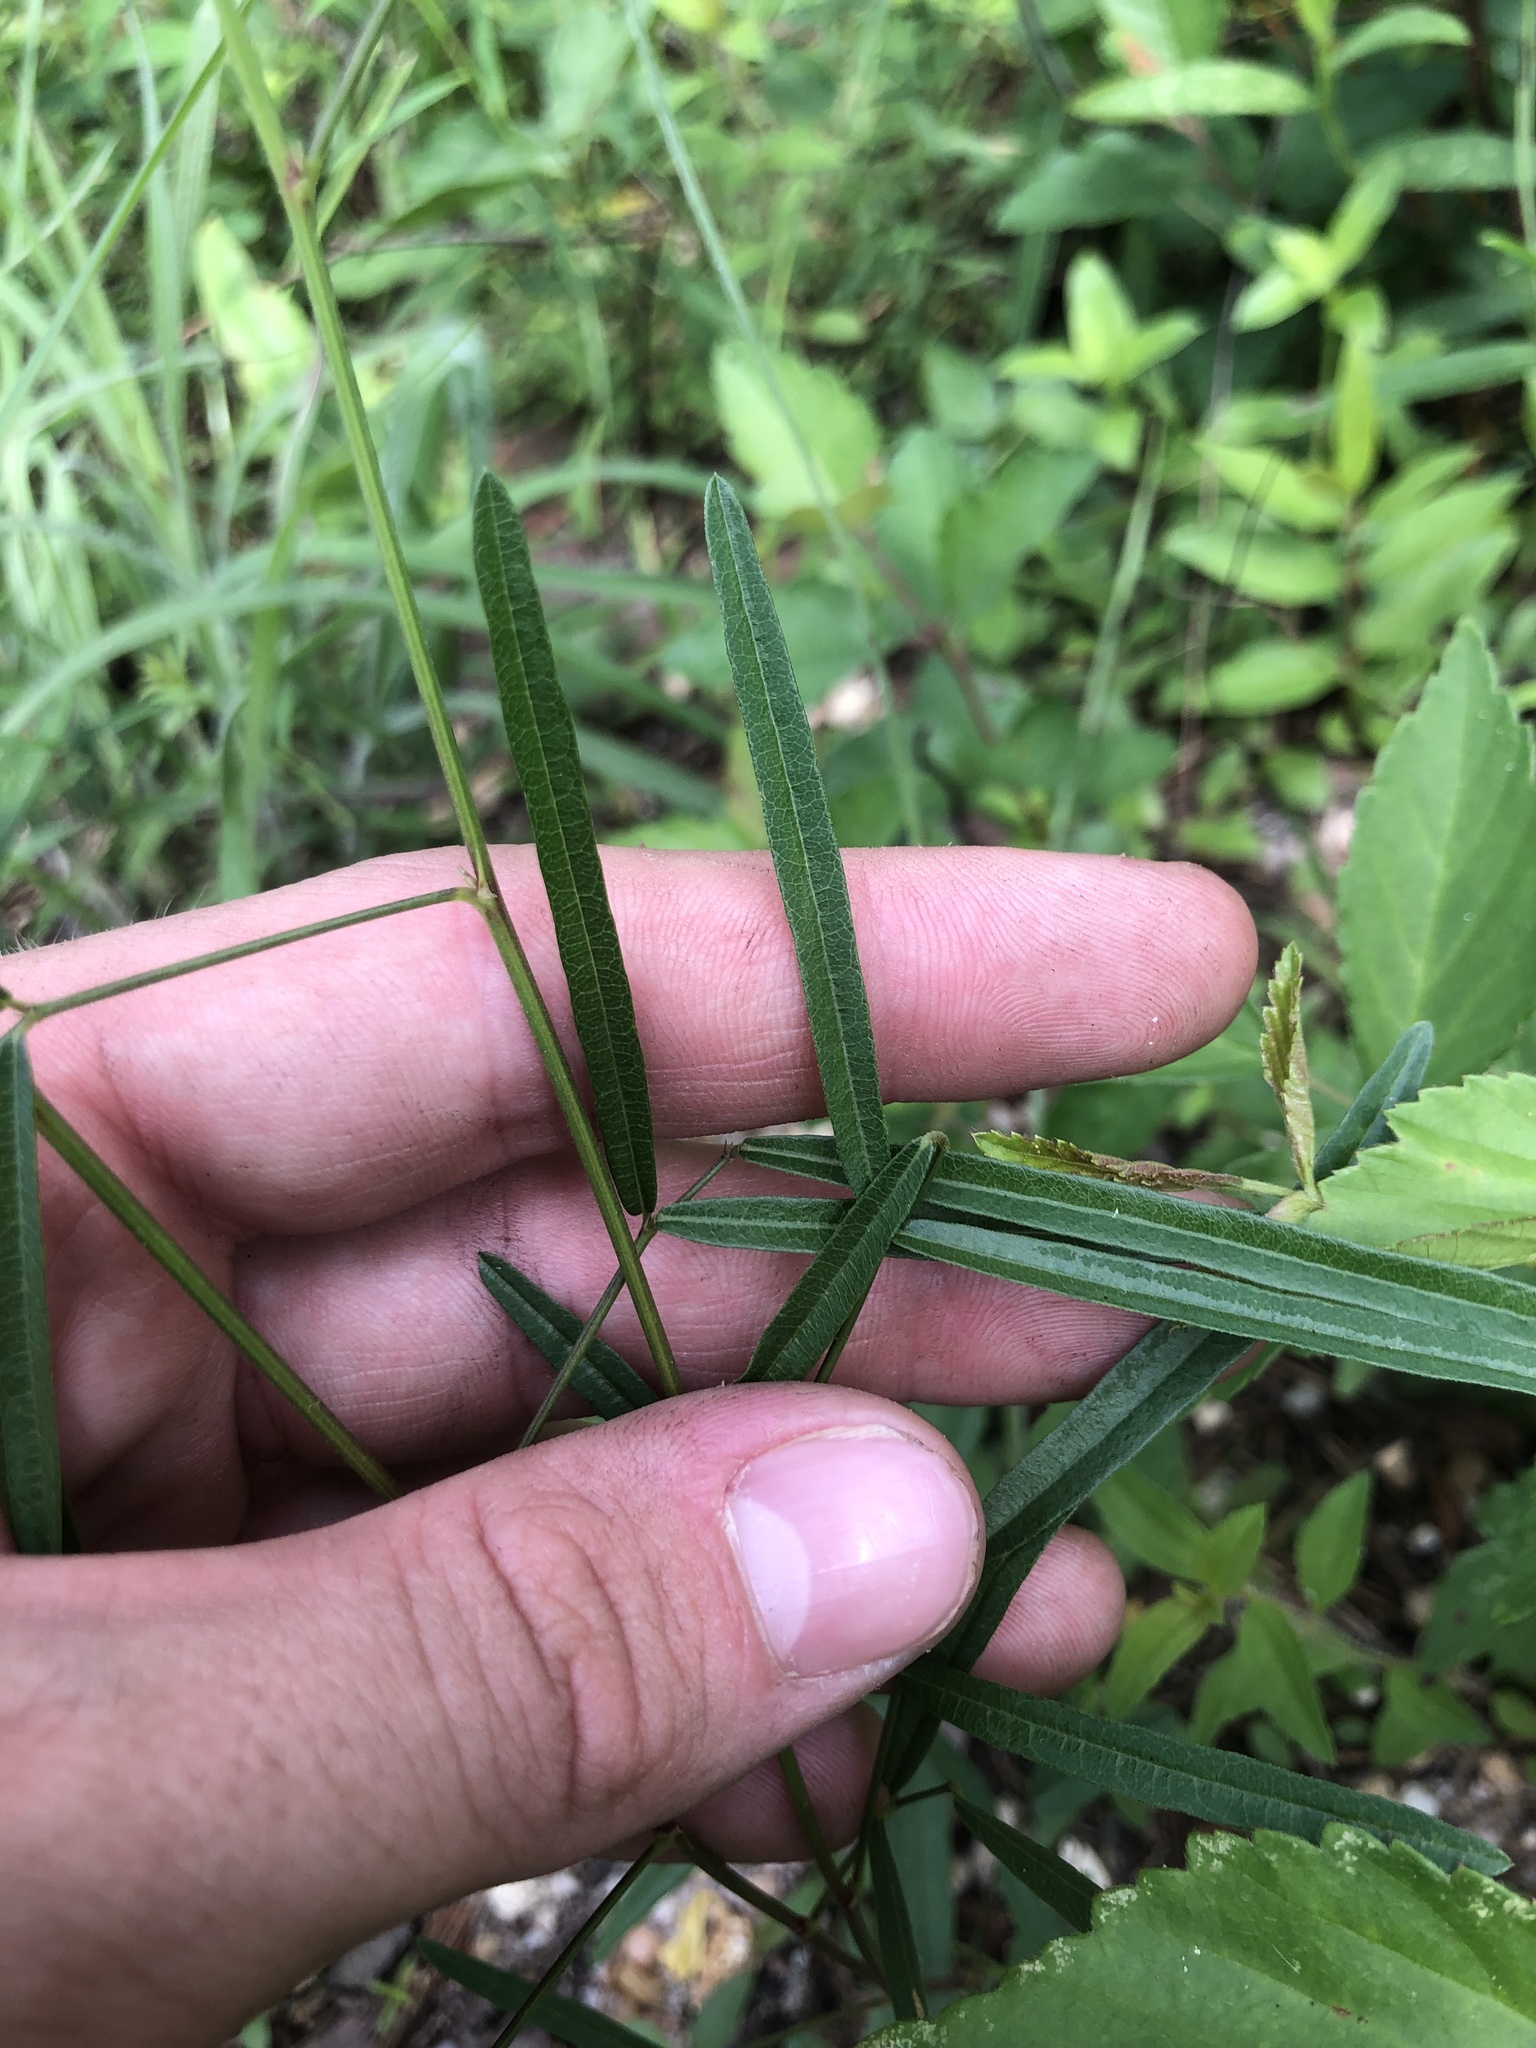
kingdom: Plantae
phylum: Tracheophyta
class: Magnoliopsida
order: Fabales
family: Fabaceae
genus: Desmodium
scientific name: Desmodium tenuifolium
